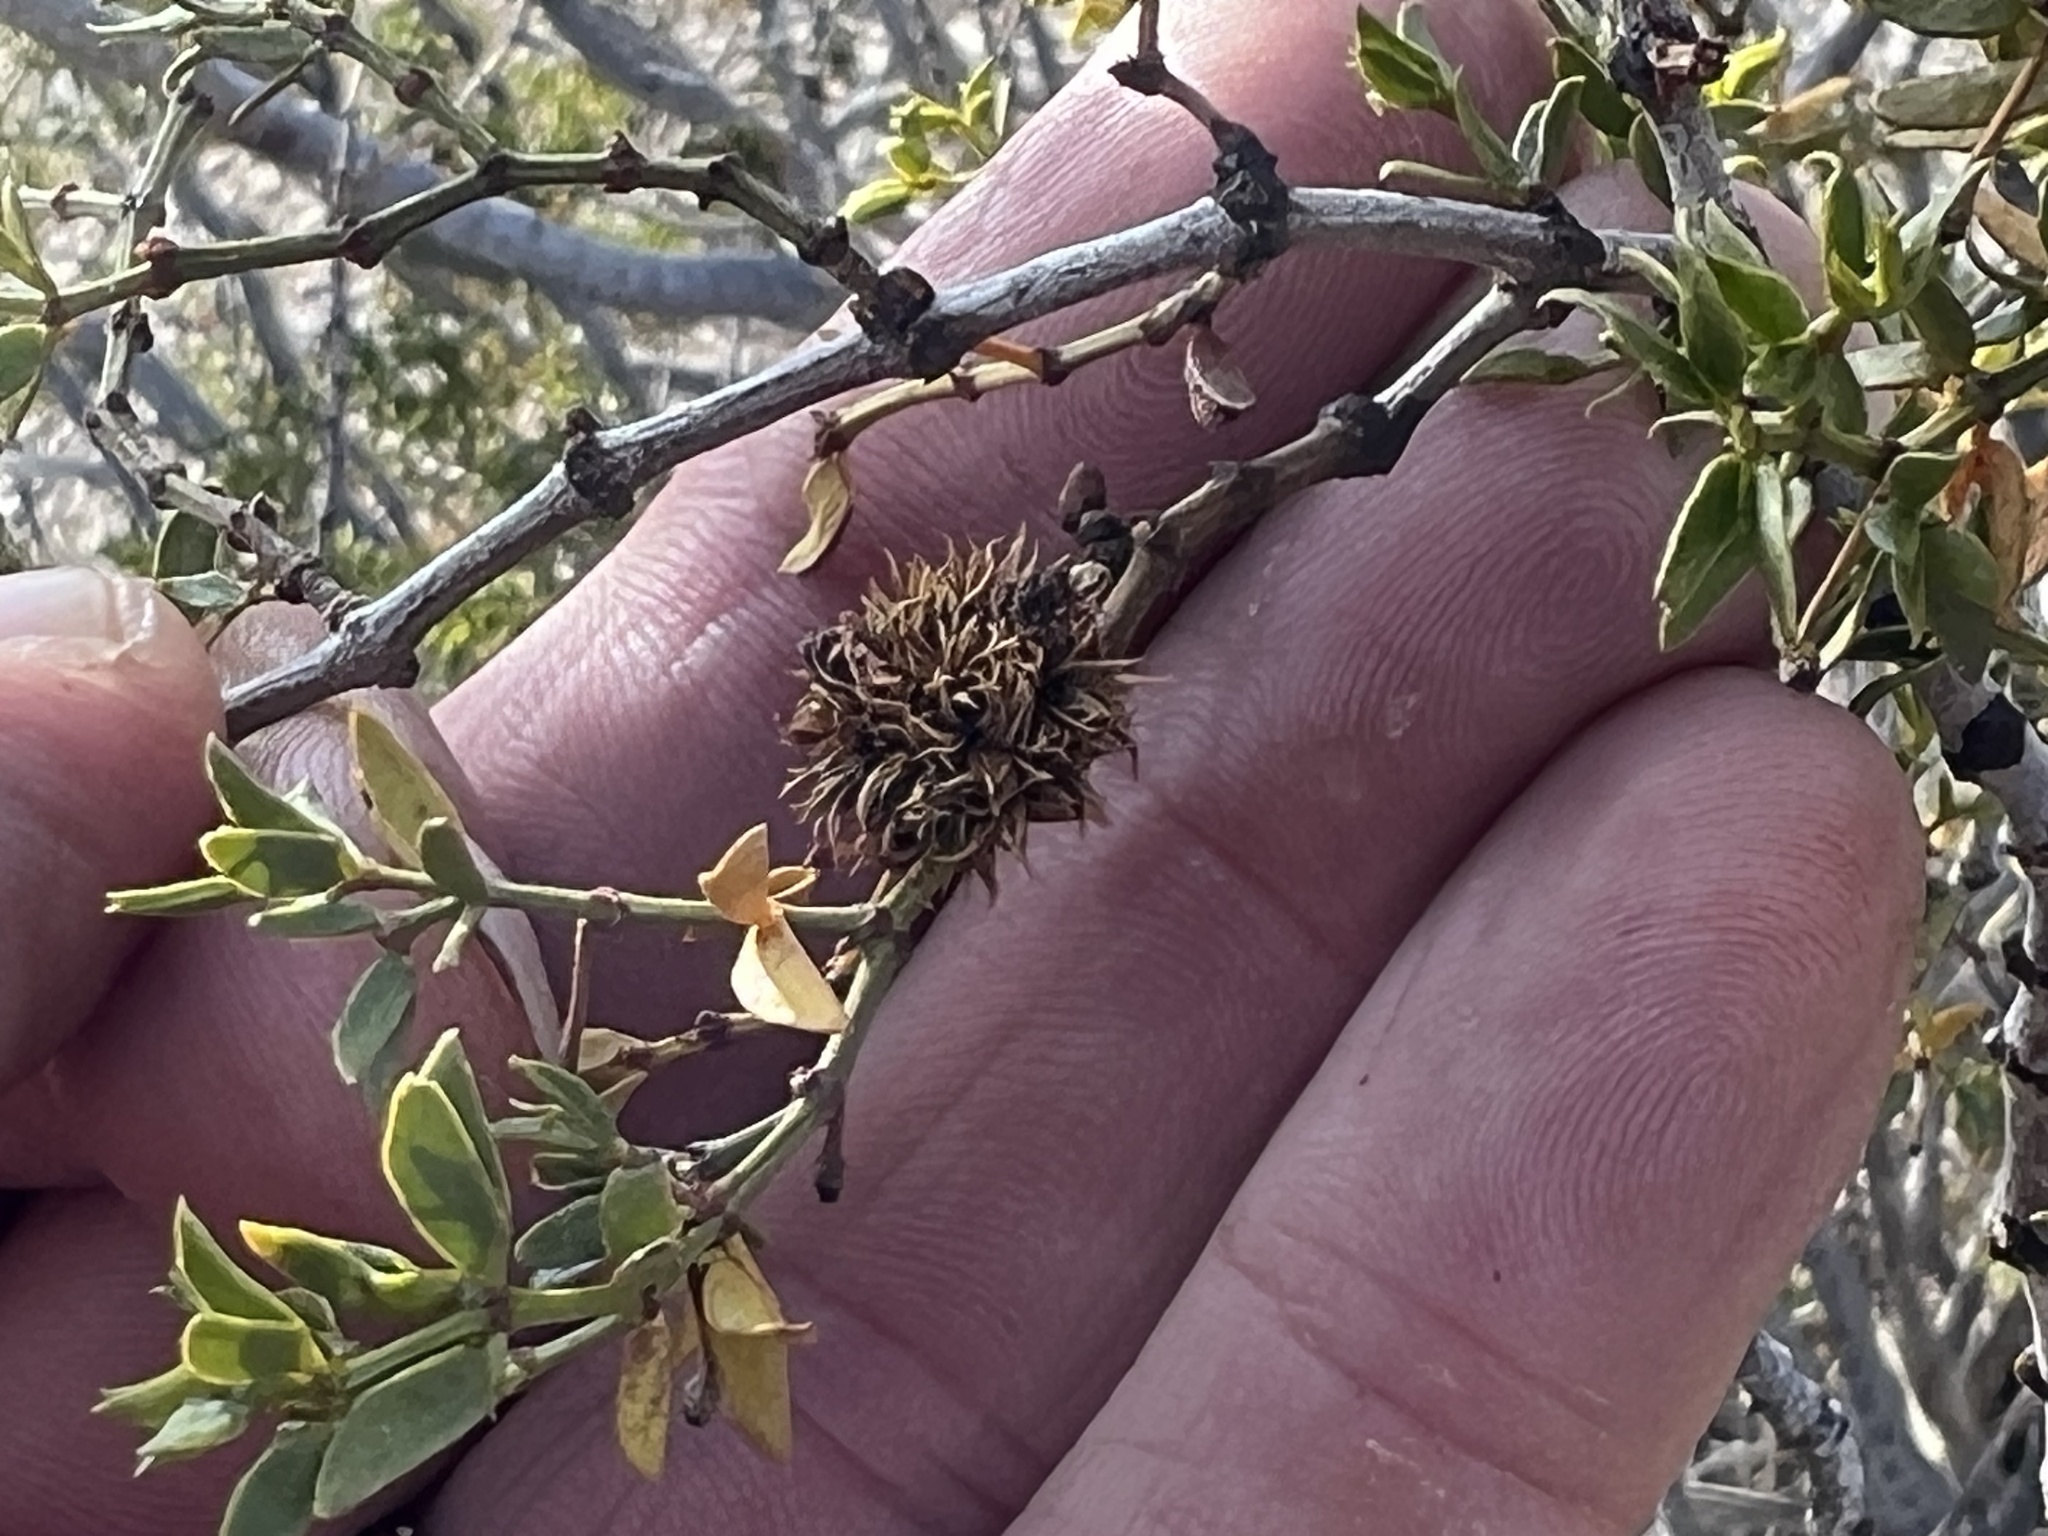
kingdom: Animalia
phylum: Arthropoda
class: Insecta
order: Diptera
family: Cecidomyiidae
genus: Asphondylia
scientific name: Asphondylia auripila
